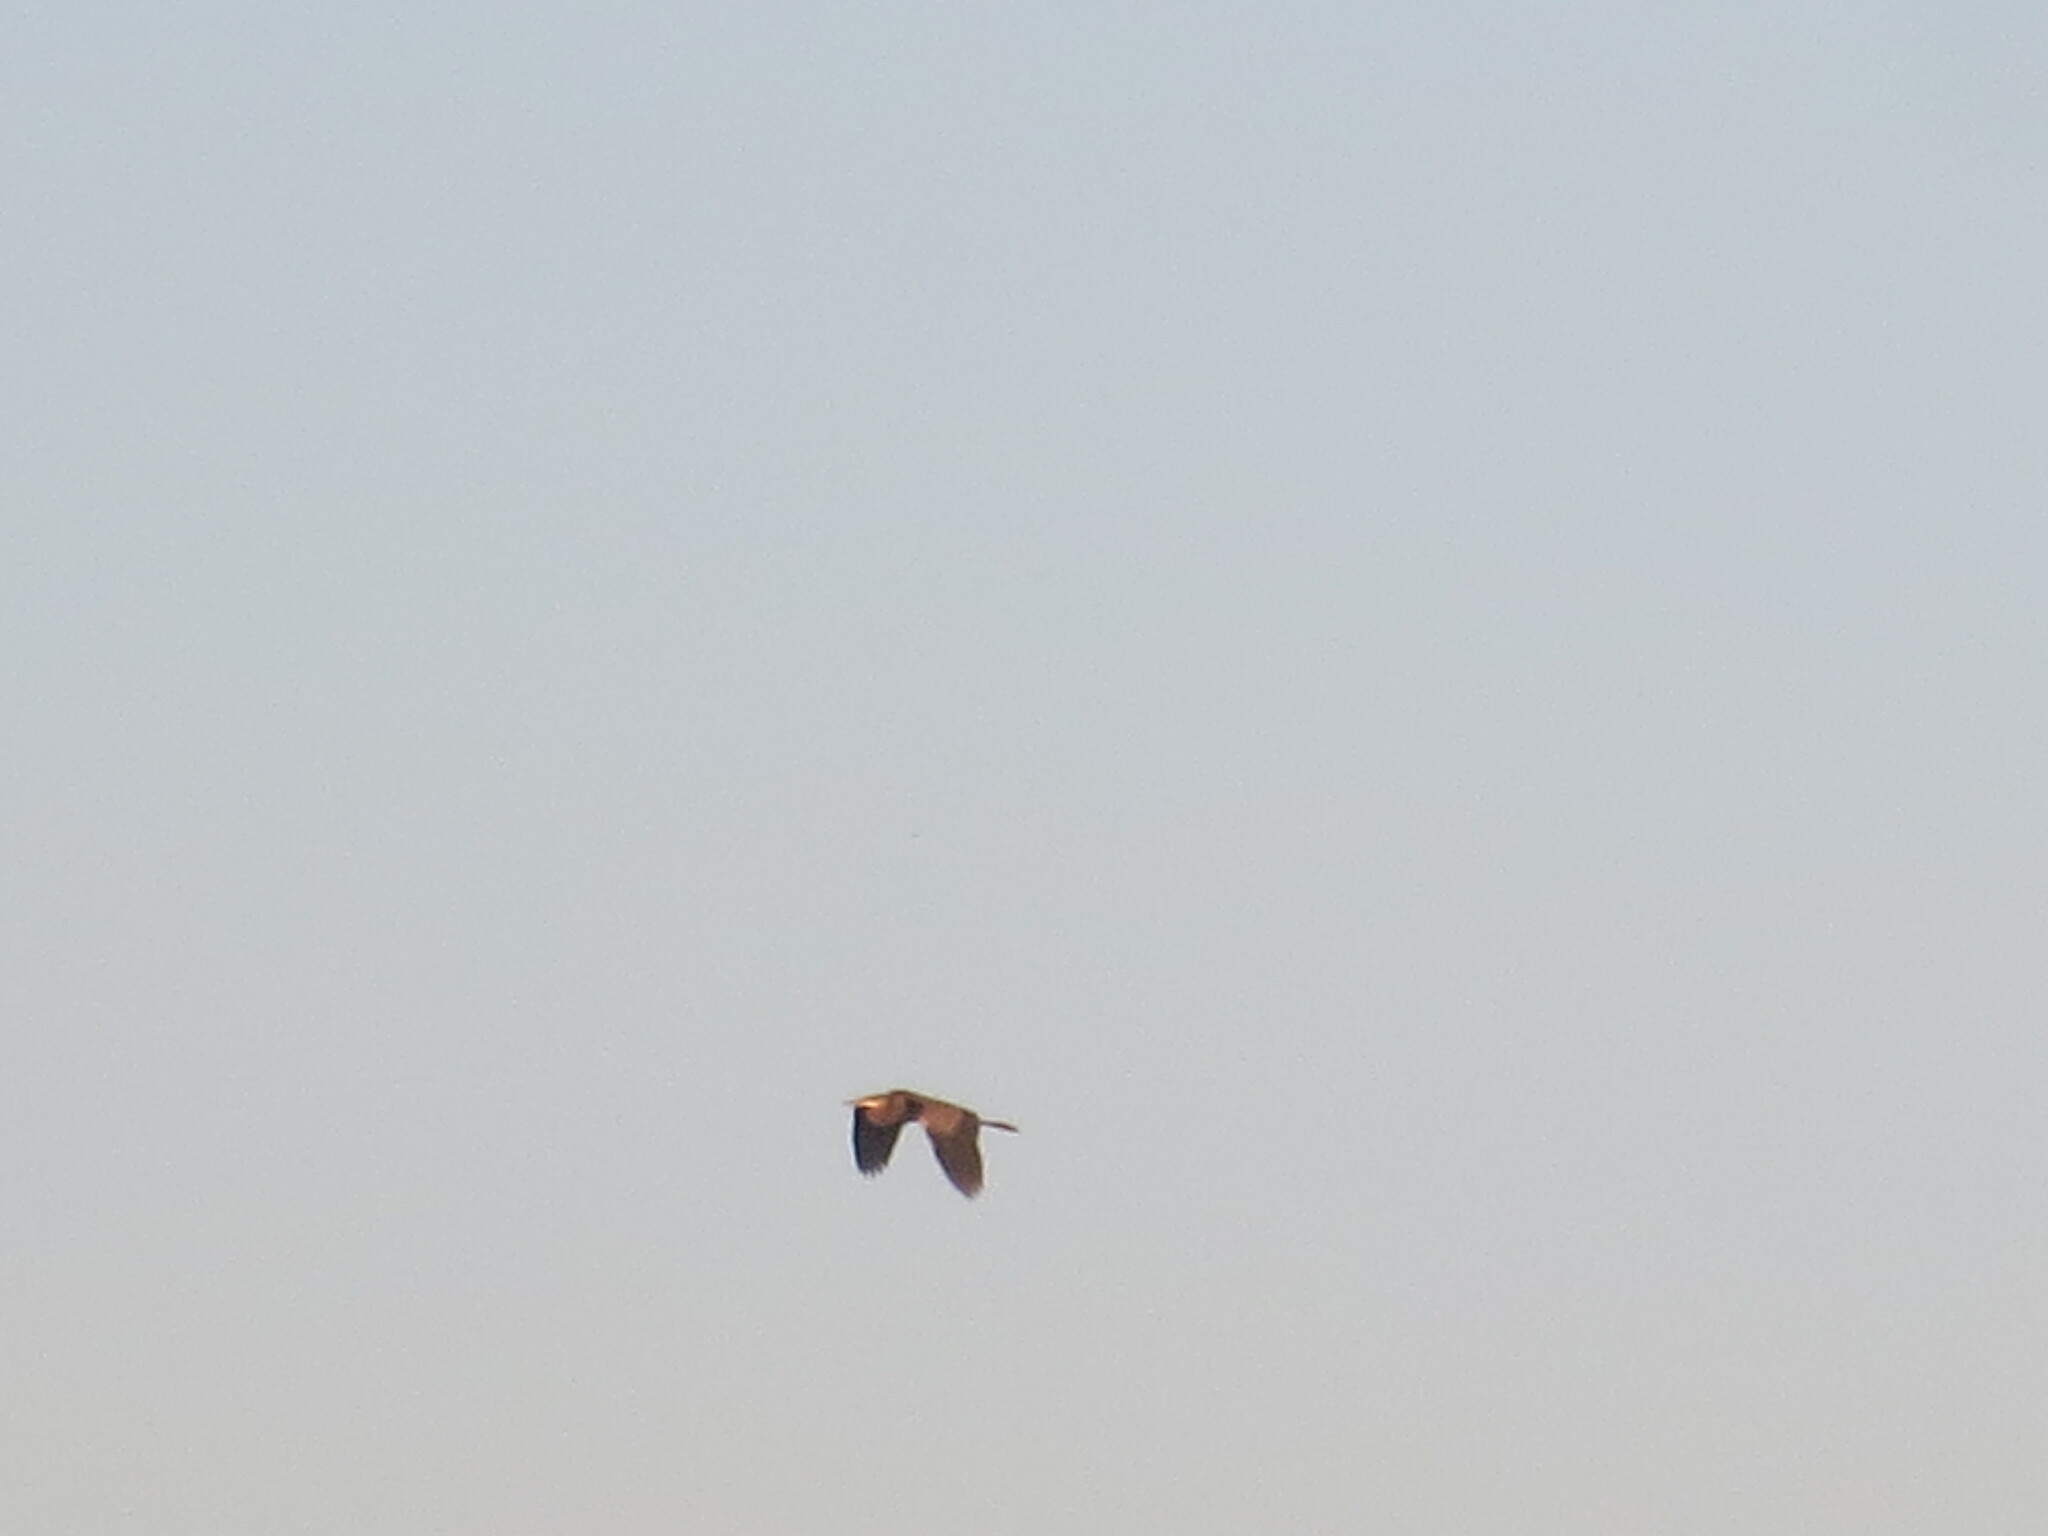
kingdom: Animalia
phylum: Chordata
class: Aves
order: Pelecaniformes
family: Ardeidae
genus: Ardea
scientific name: Ardea herodias
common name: Great blue heron
